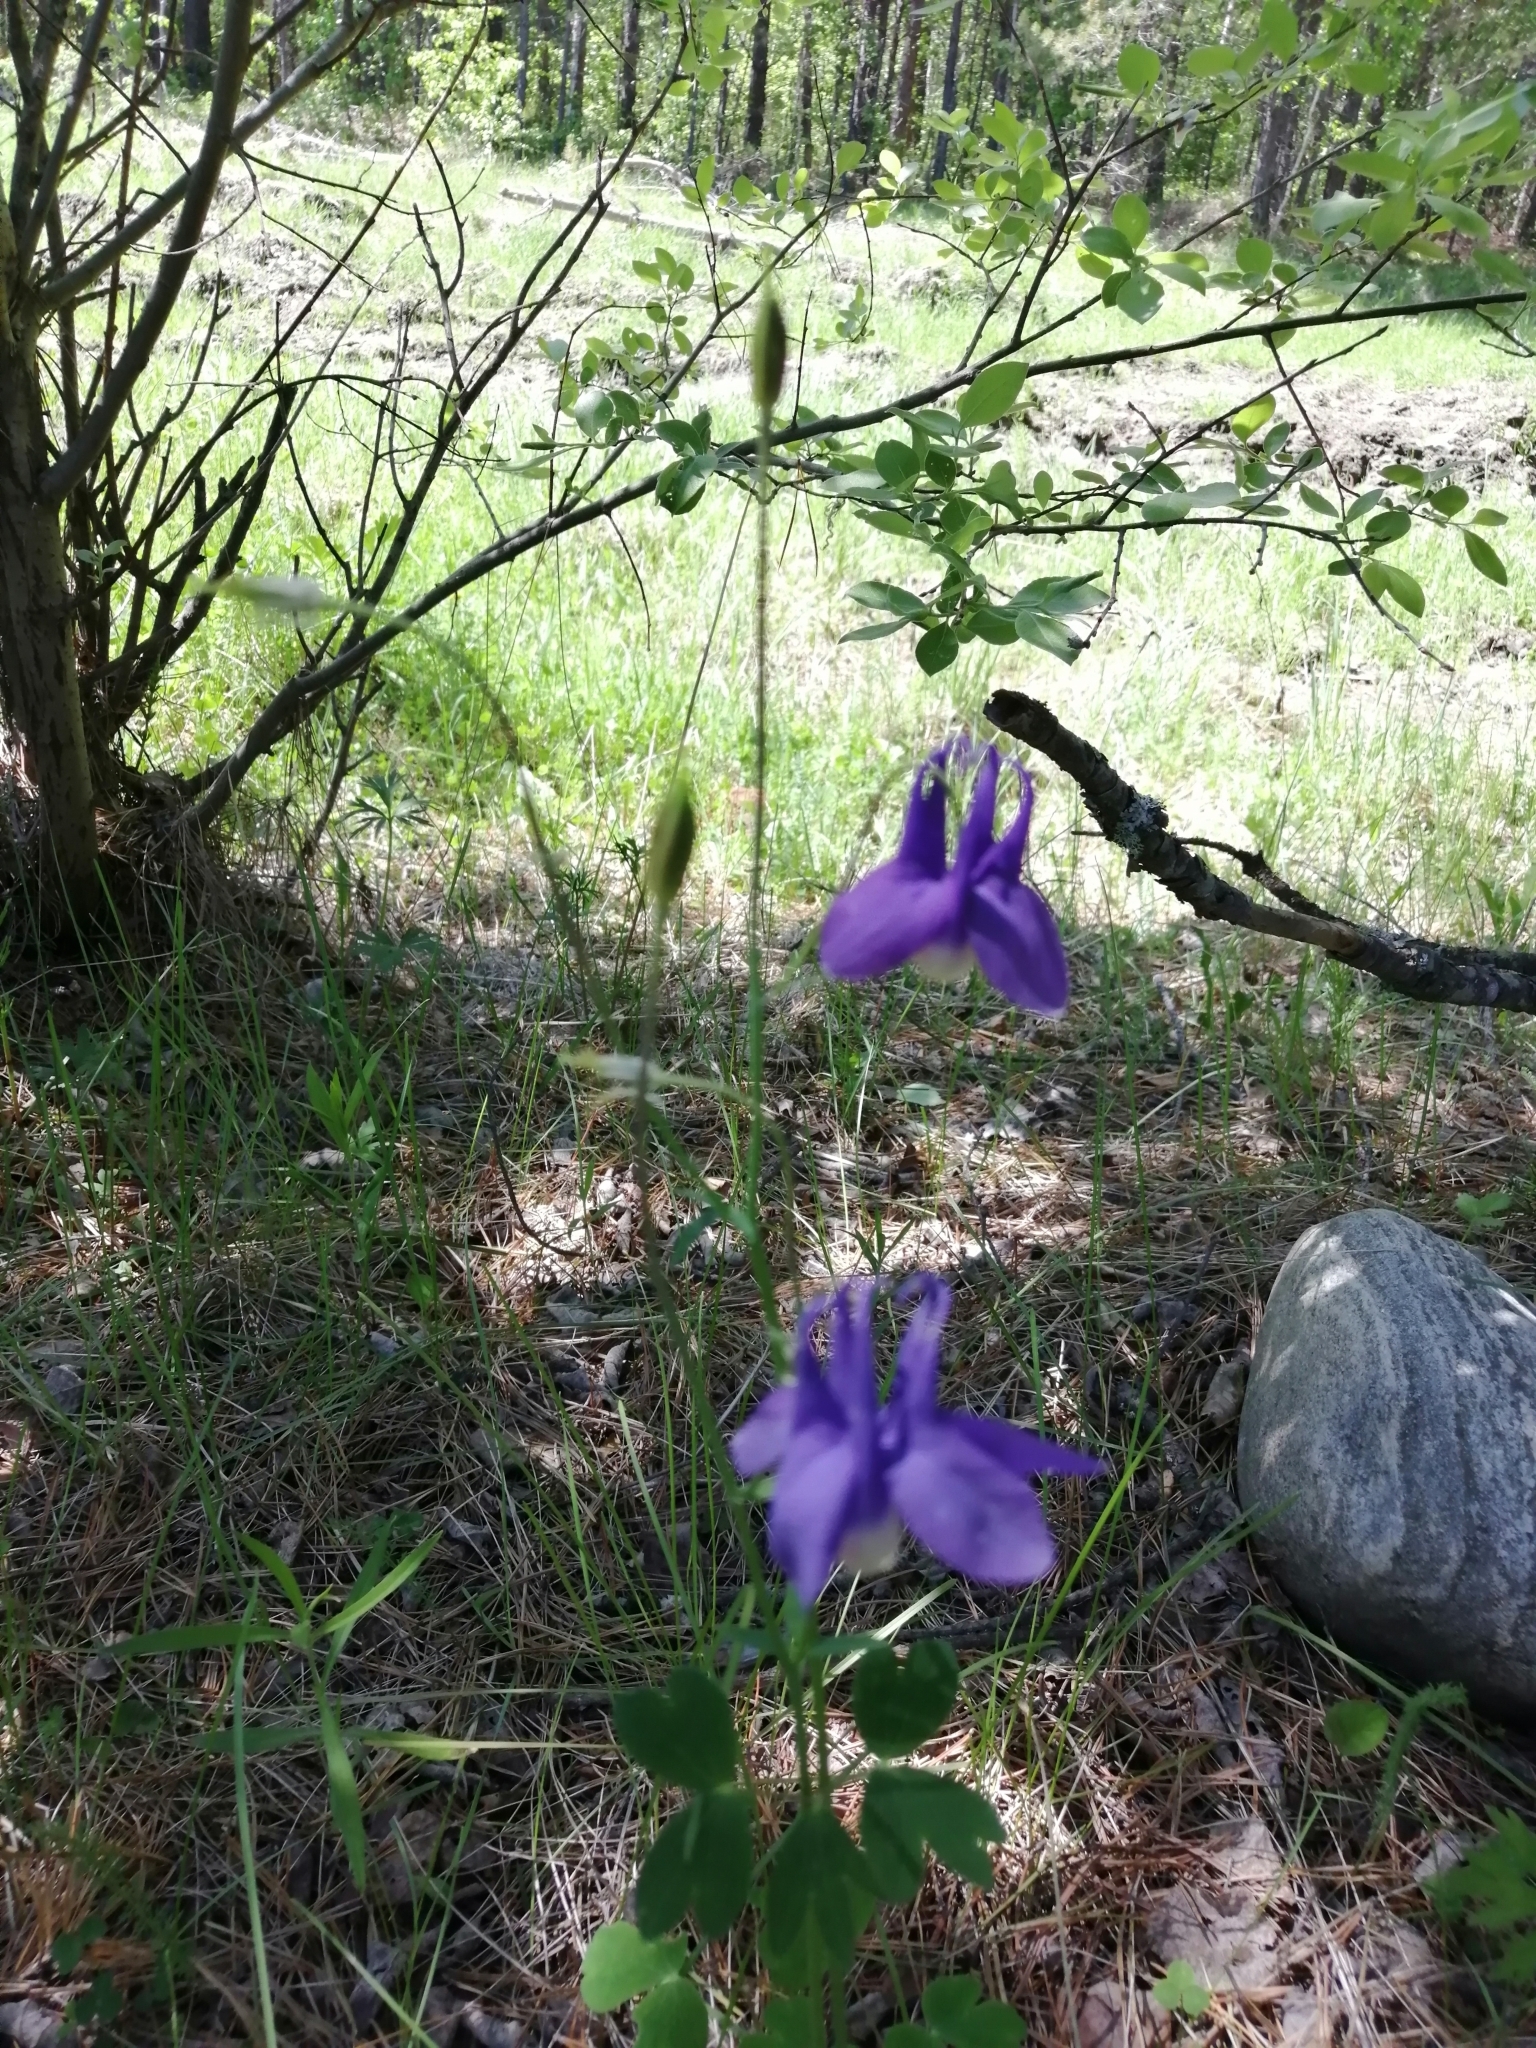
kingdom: Plantae
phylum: Tracheophyta
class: Magnoliopsida
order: Ranunculales
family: Ranunculaceae
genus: Aquilegia
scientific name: Aquilegia sibirica
